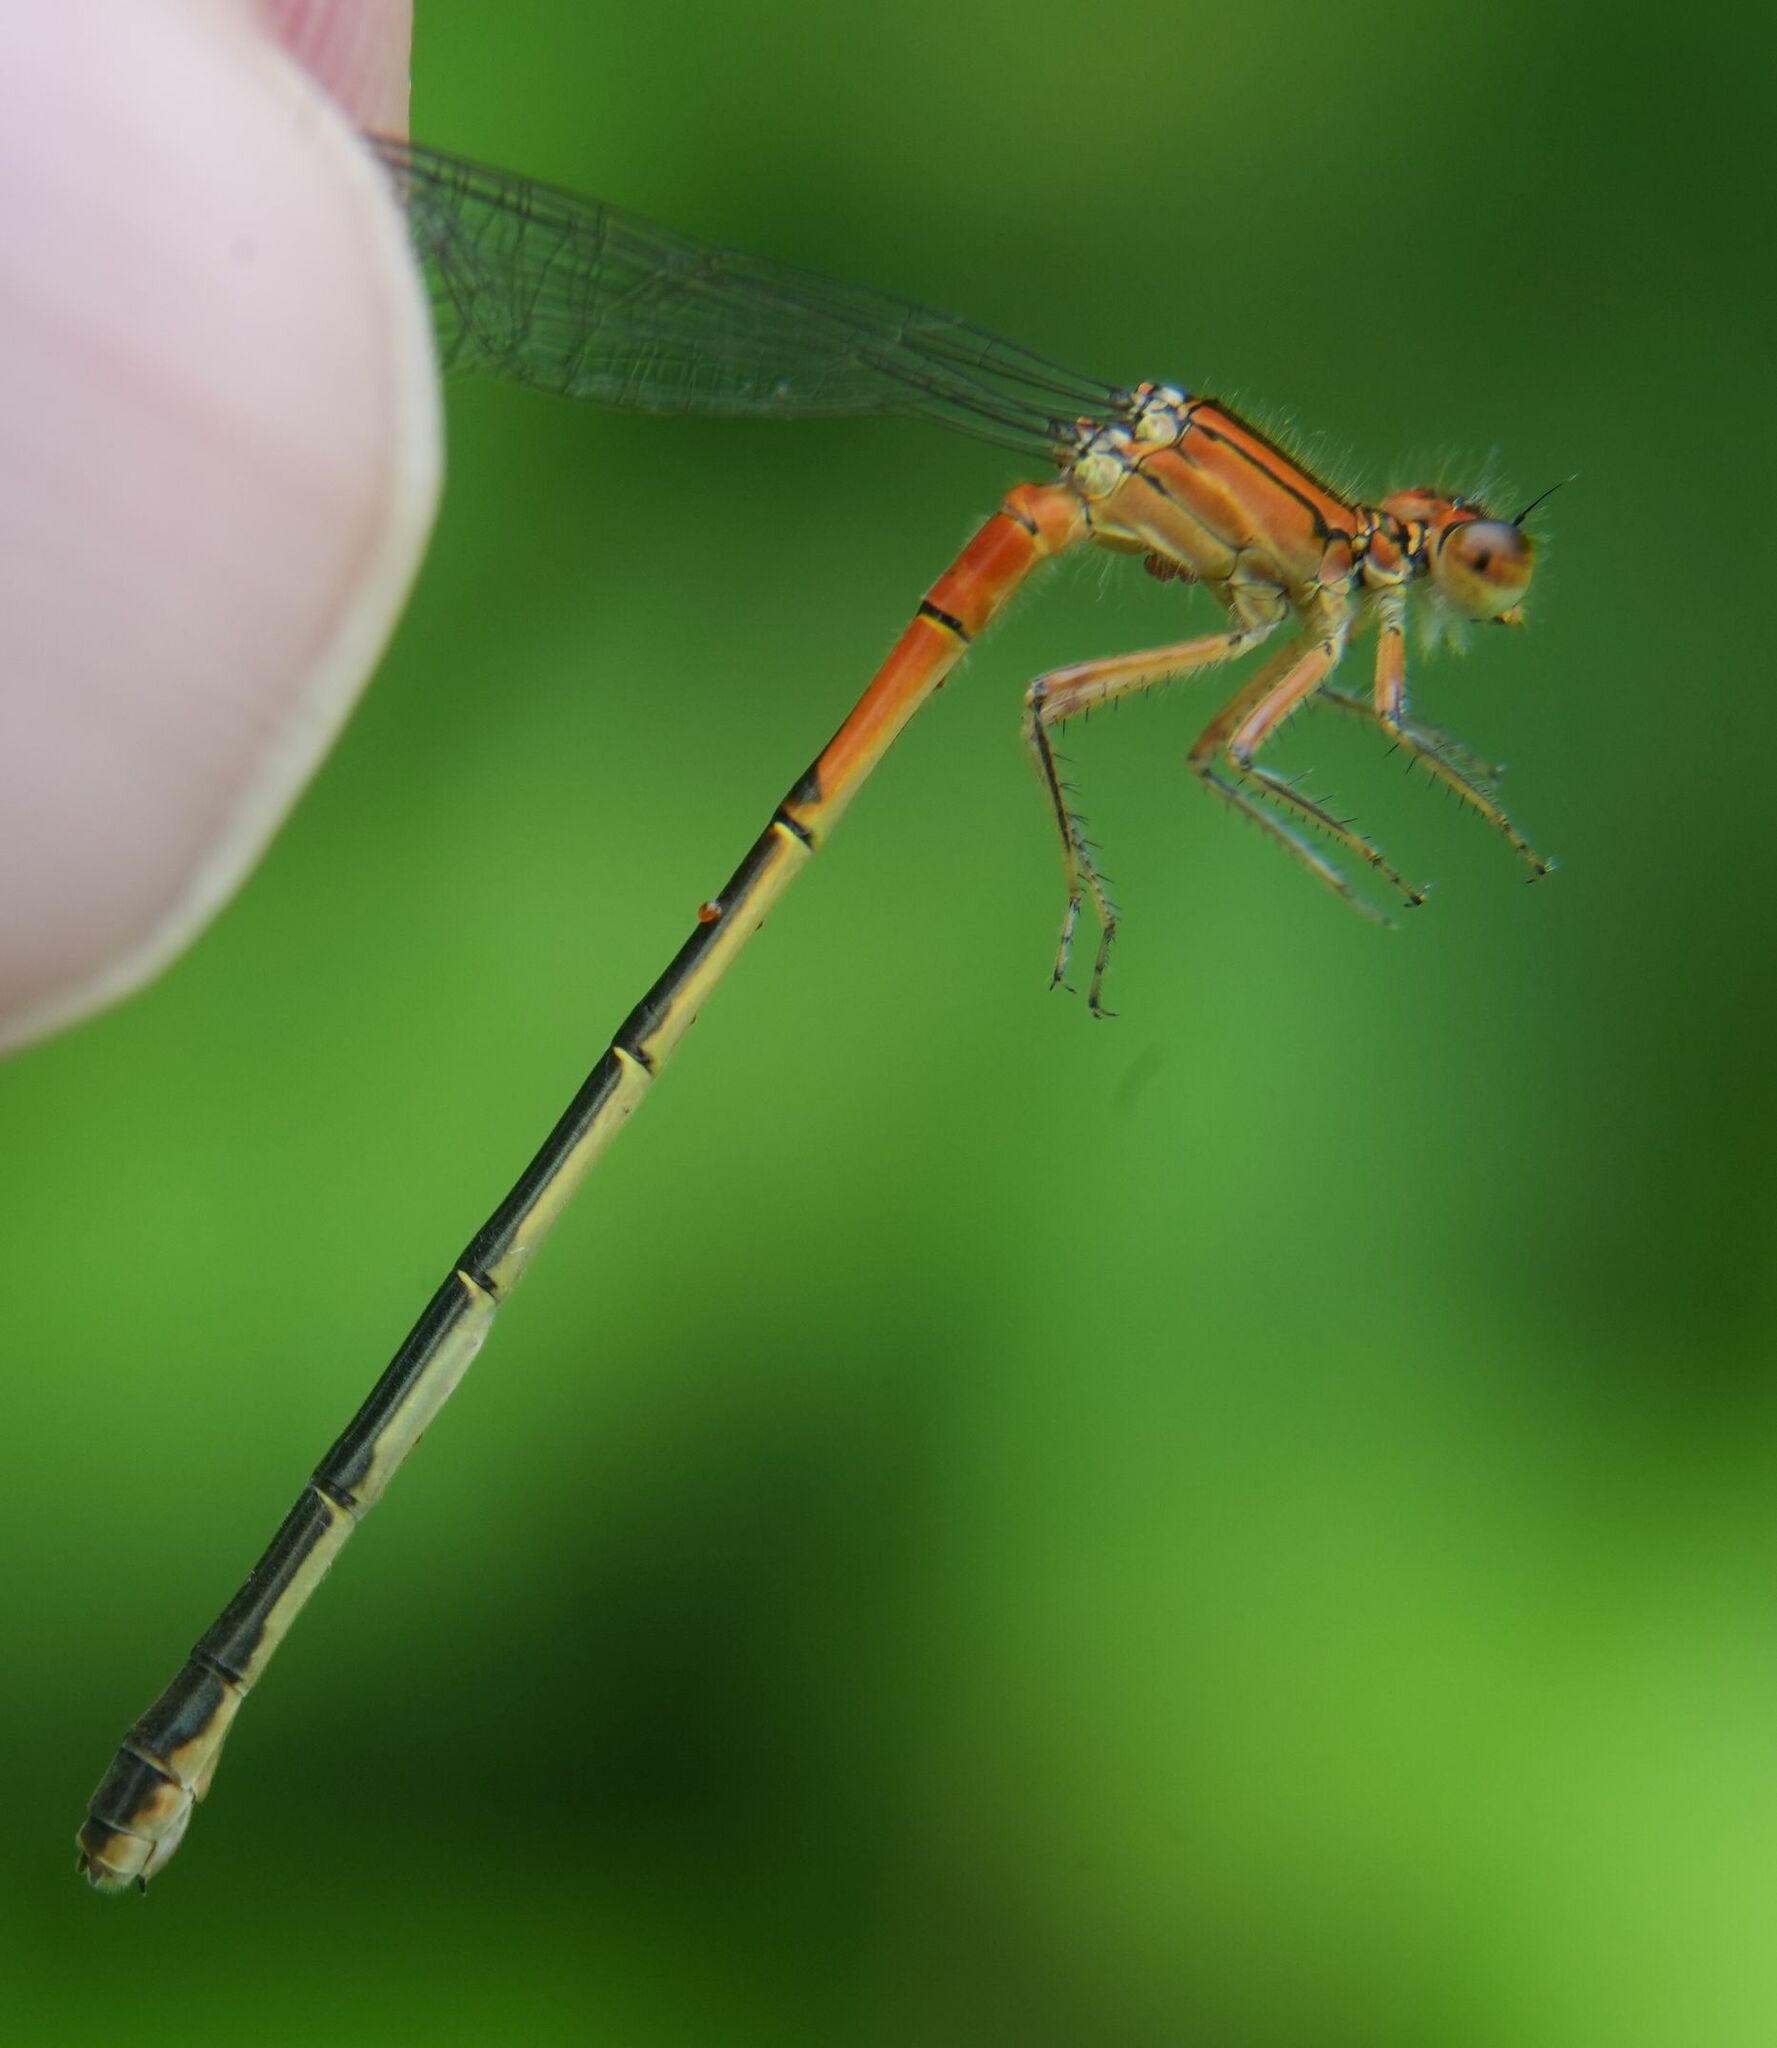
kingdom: Animalia
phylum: Arthropoda
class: Insecta
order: Odonata
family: Coenagrionidae
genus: Ischnura
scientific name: Ischnura verticalis
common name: Eastern forktail
